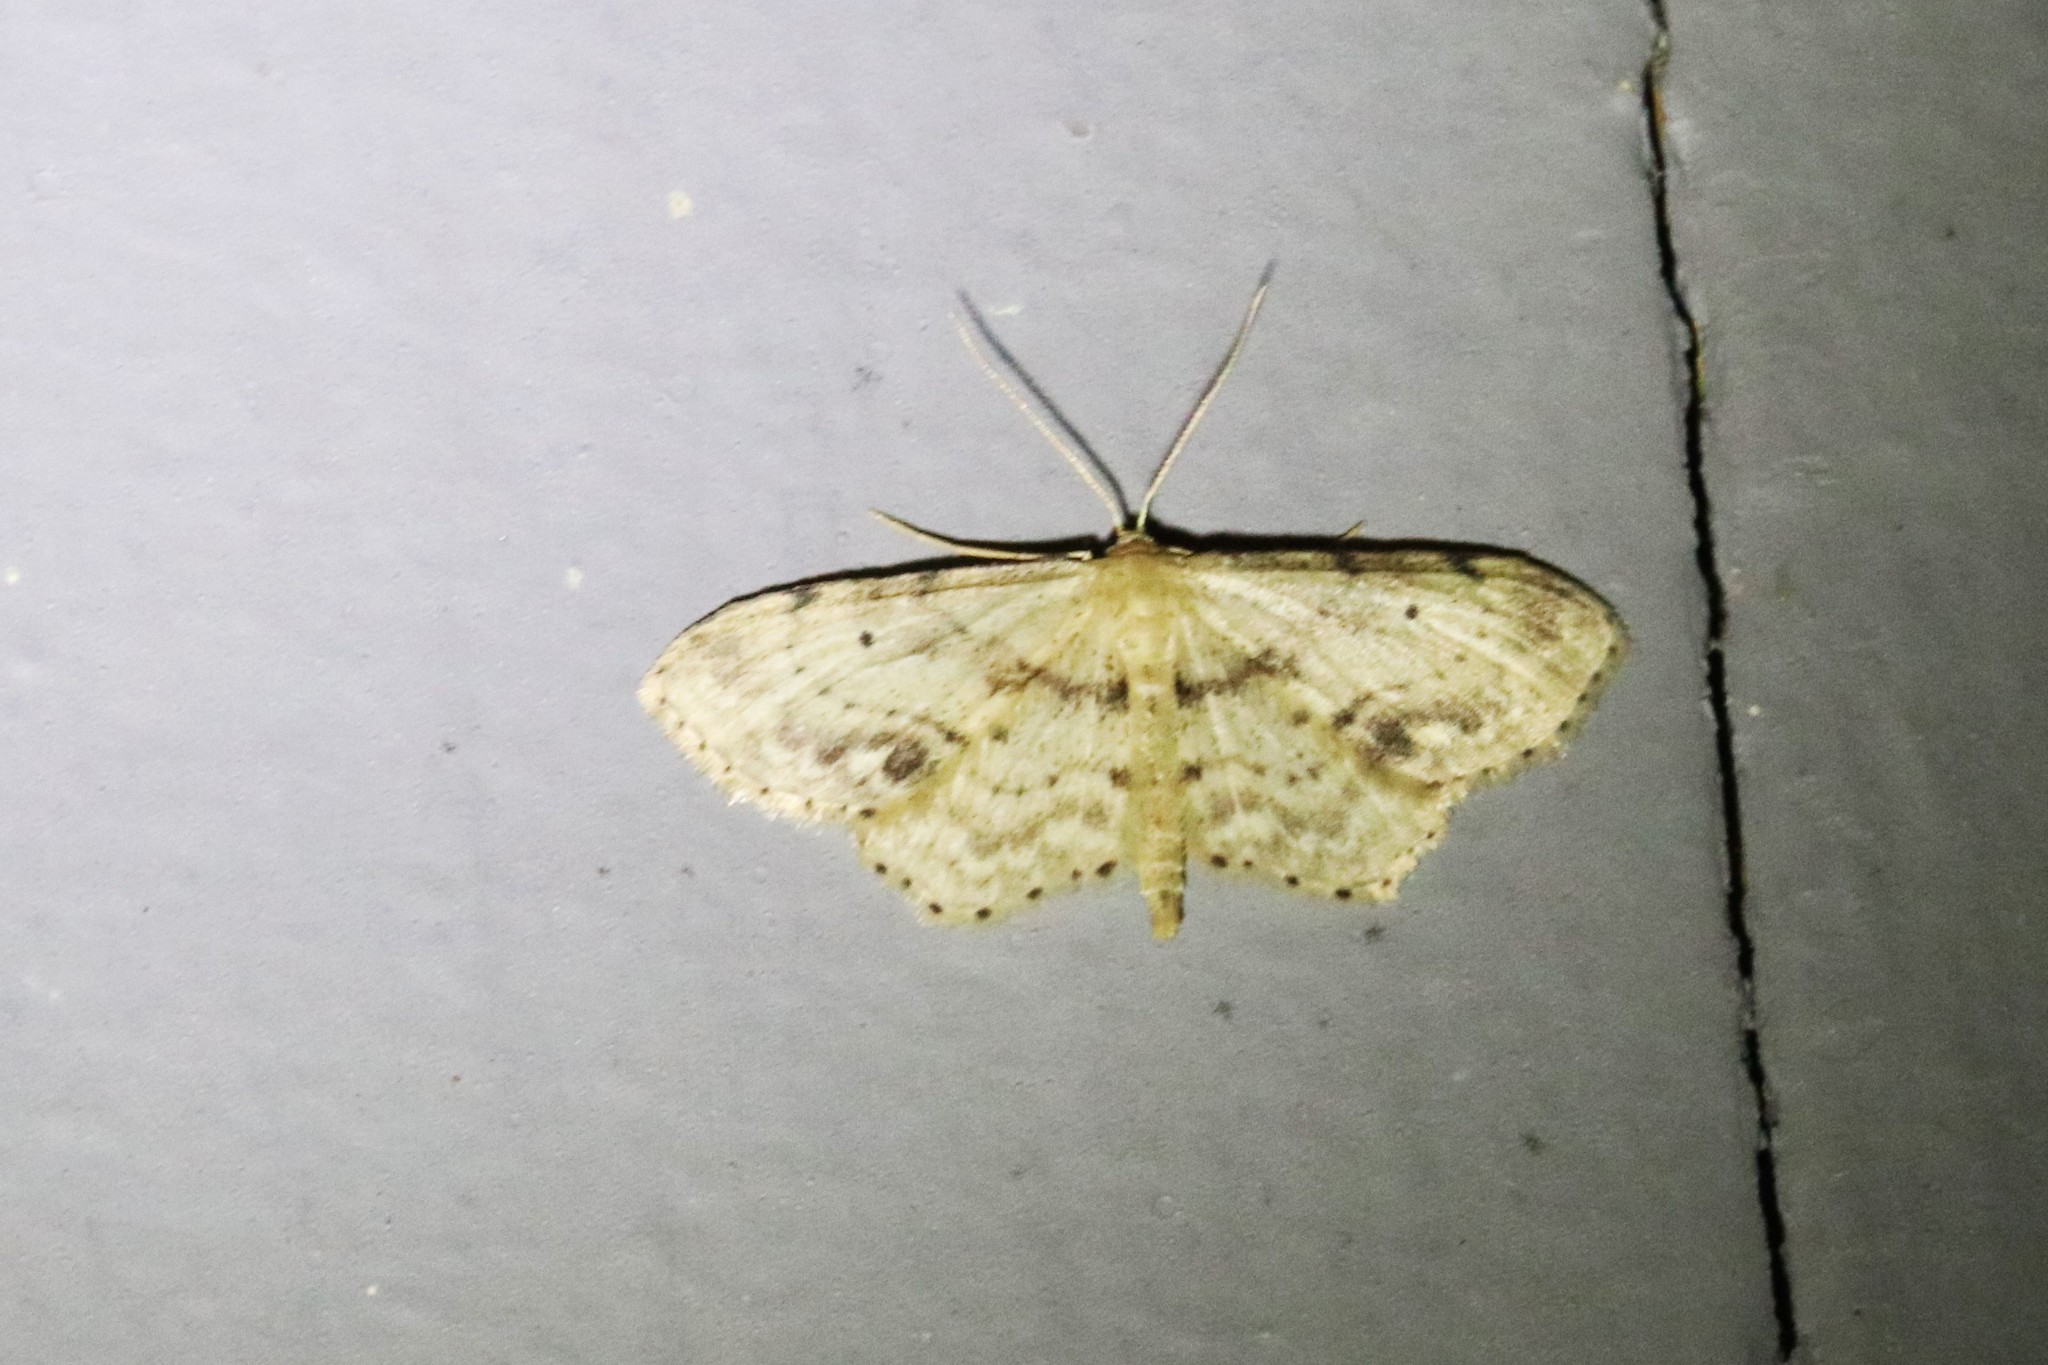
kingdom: Animalia
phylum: Arthropoda
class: Insecta
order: Lepidoptera
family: Geometridae
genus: Idaea
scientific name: Idaea dimidiata
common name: Single-dotted wave
